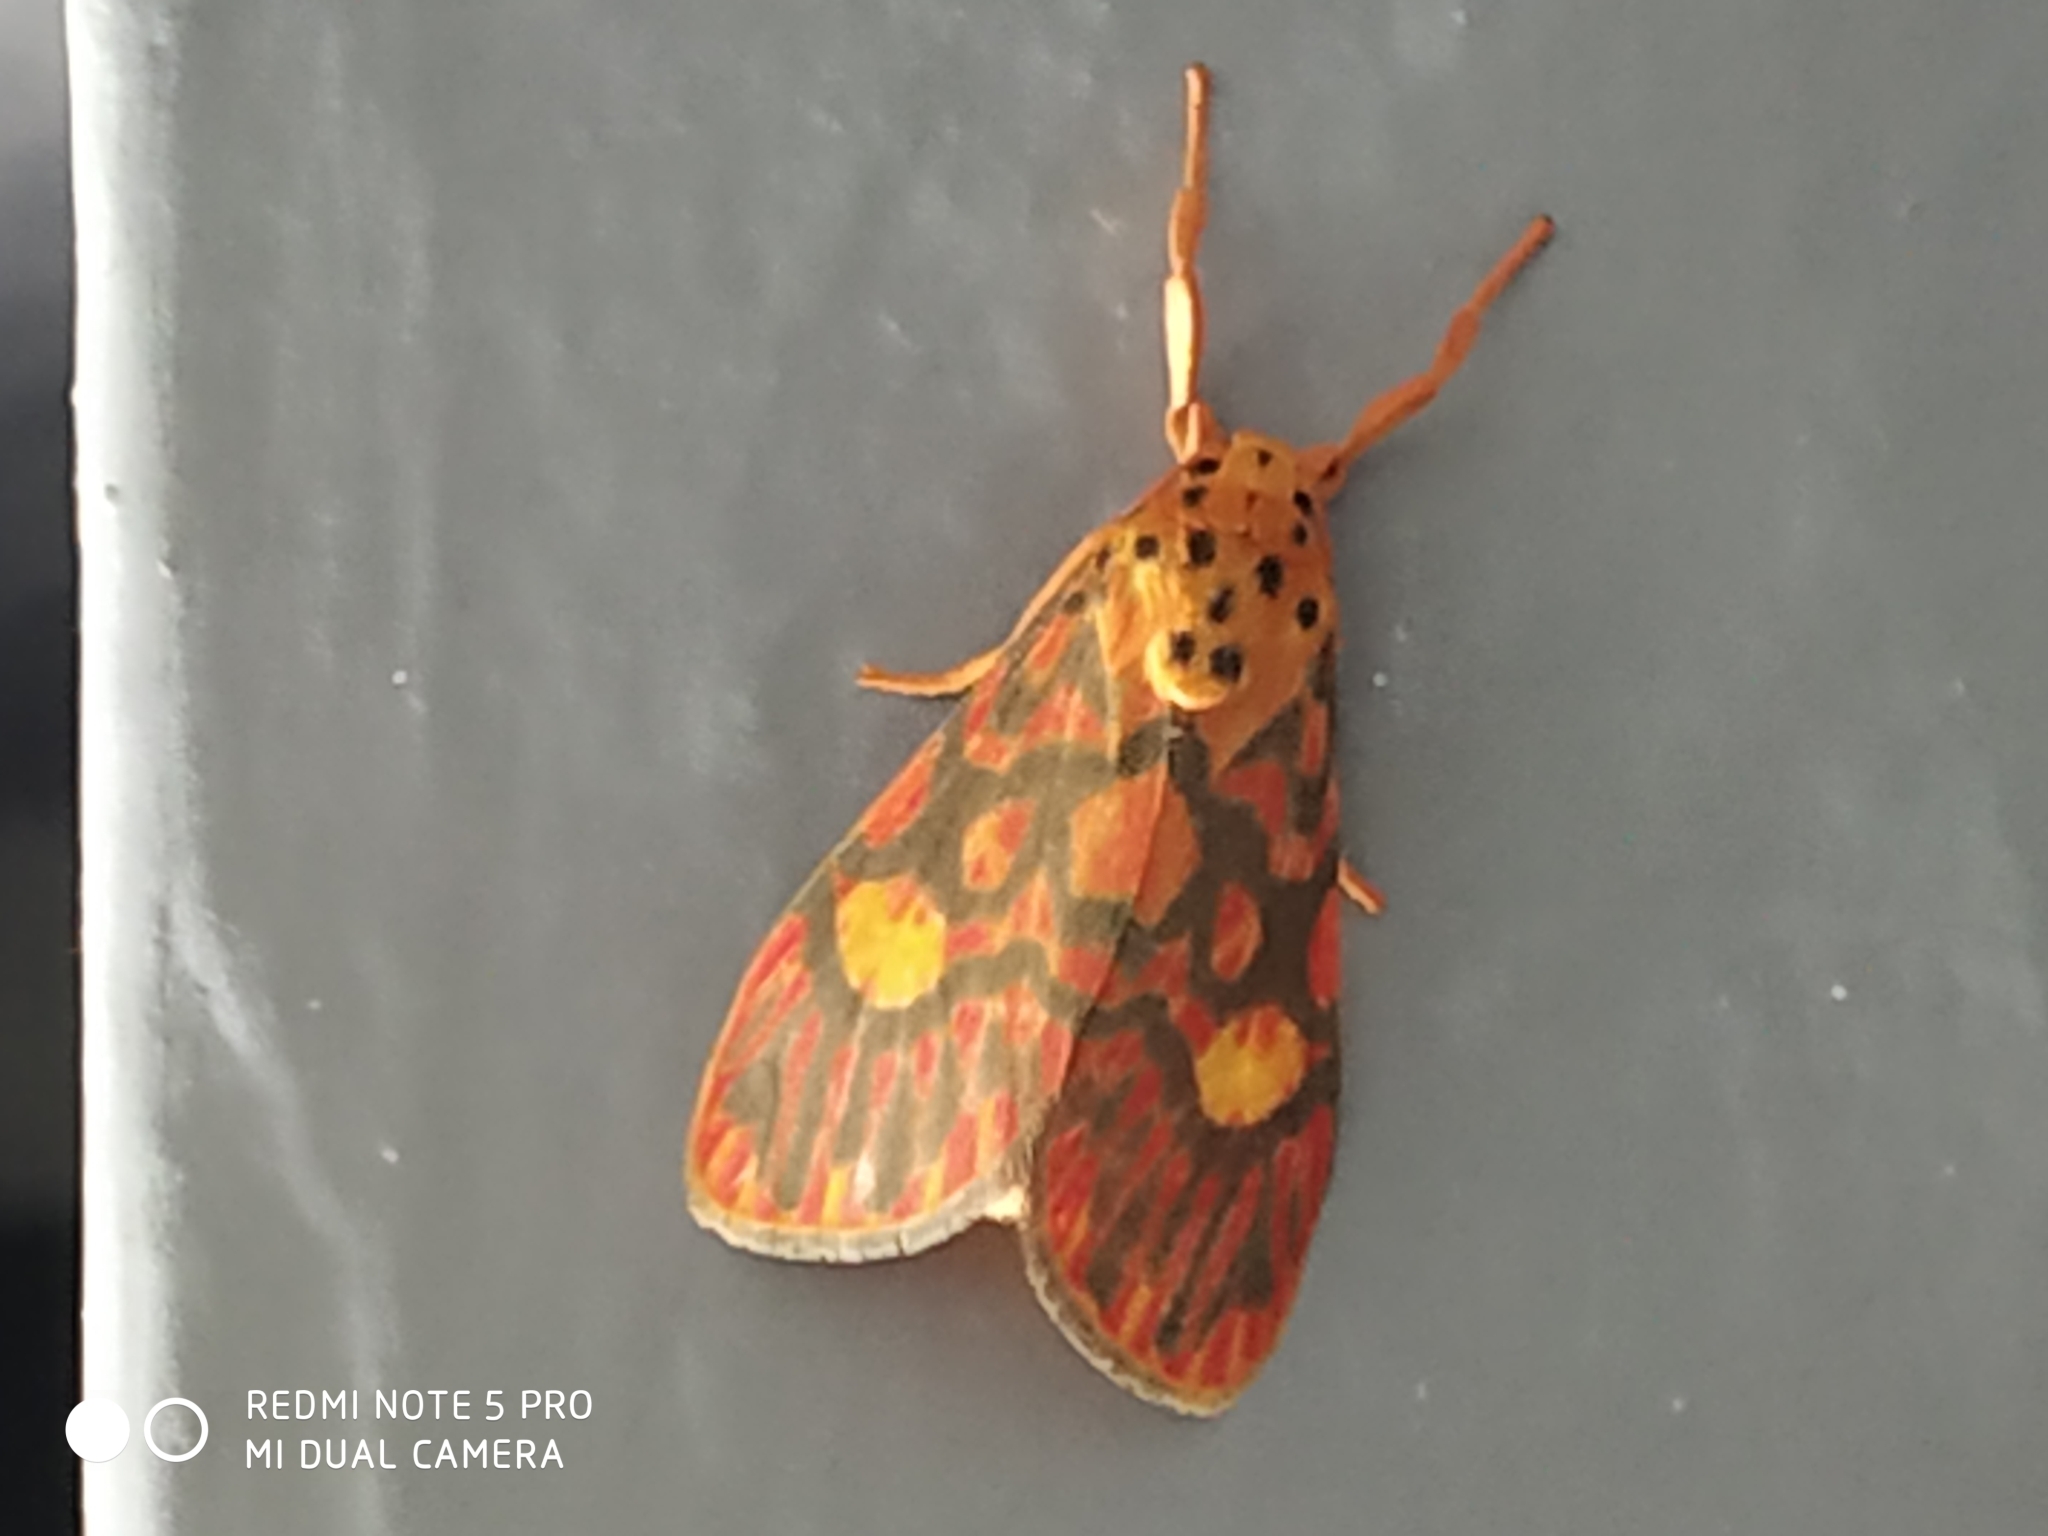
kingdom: Animalia
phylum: Arthropoda
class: Insecta
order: Lepidoptera
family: Erebidae
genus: Ammatho
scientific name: Ammatho cuneonotatus
